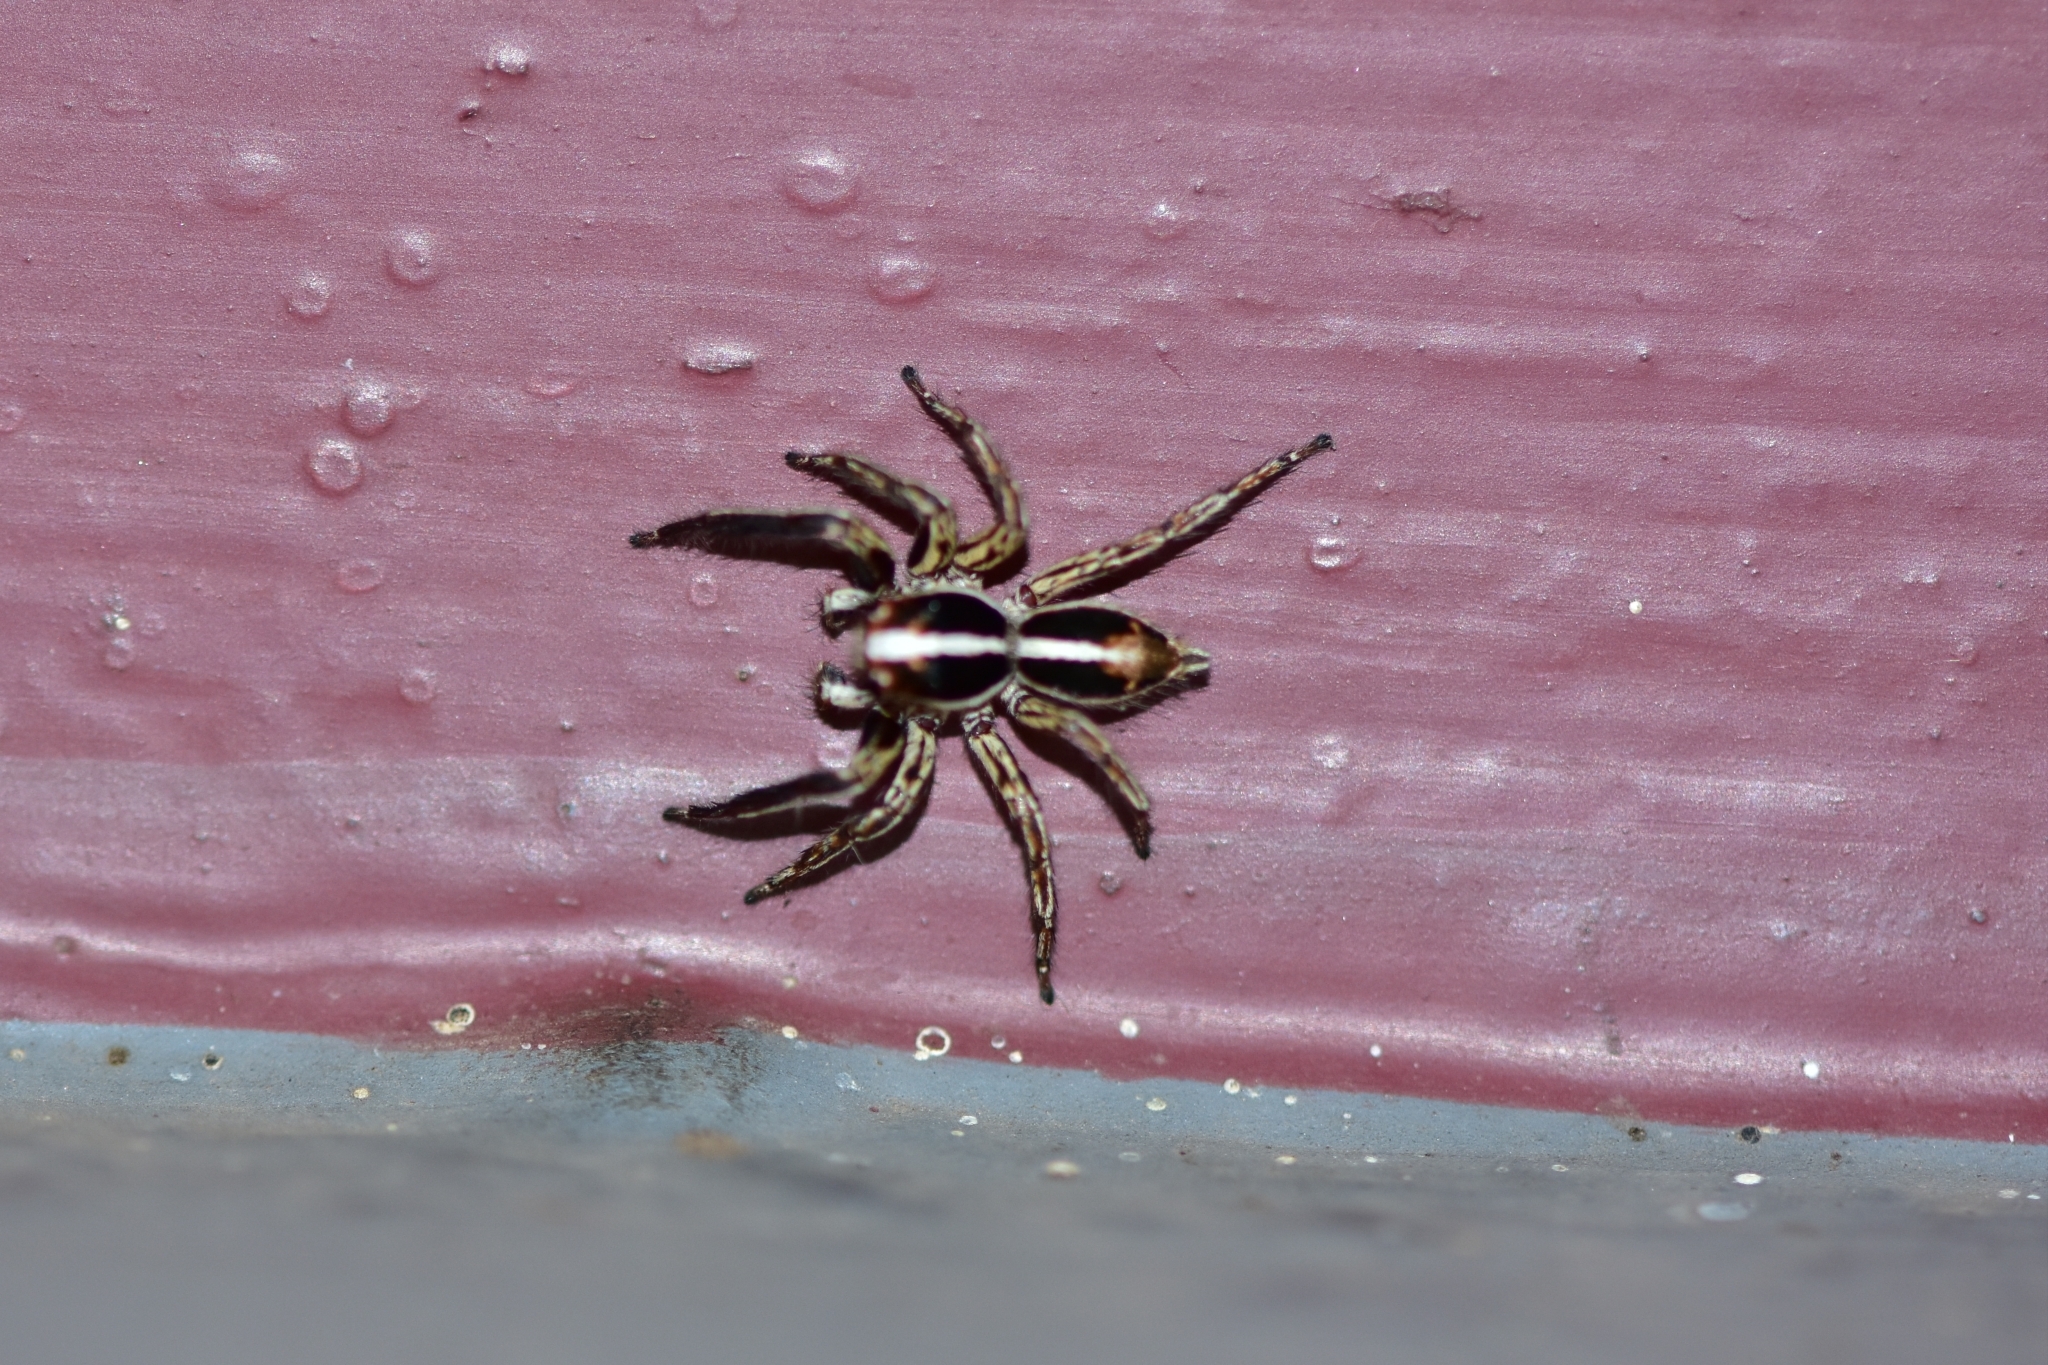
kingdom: Animalia
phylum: Arthropoda
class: Arachnida
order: Araneae
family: Salticidae
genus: Plexippus
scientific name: Plexippus paykulli
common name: Pantropical jumper
